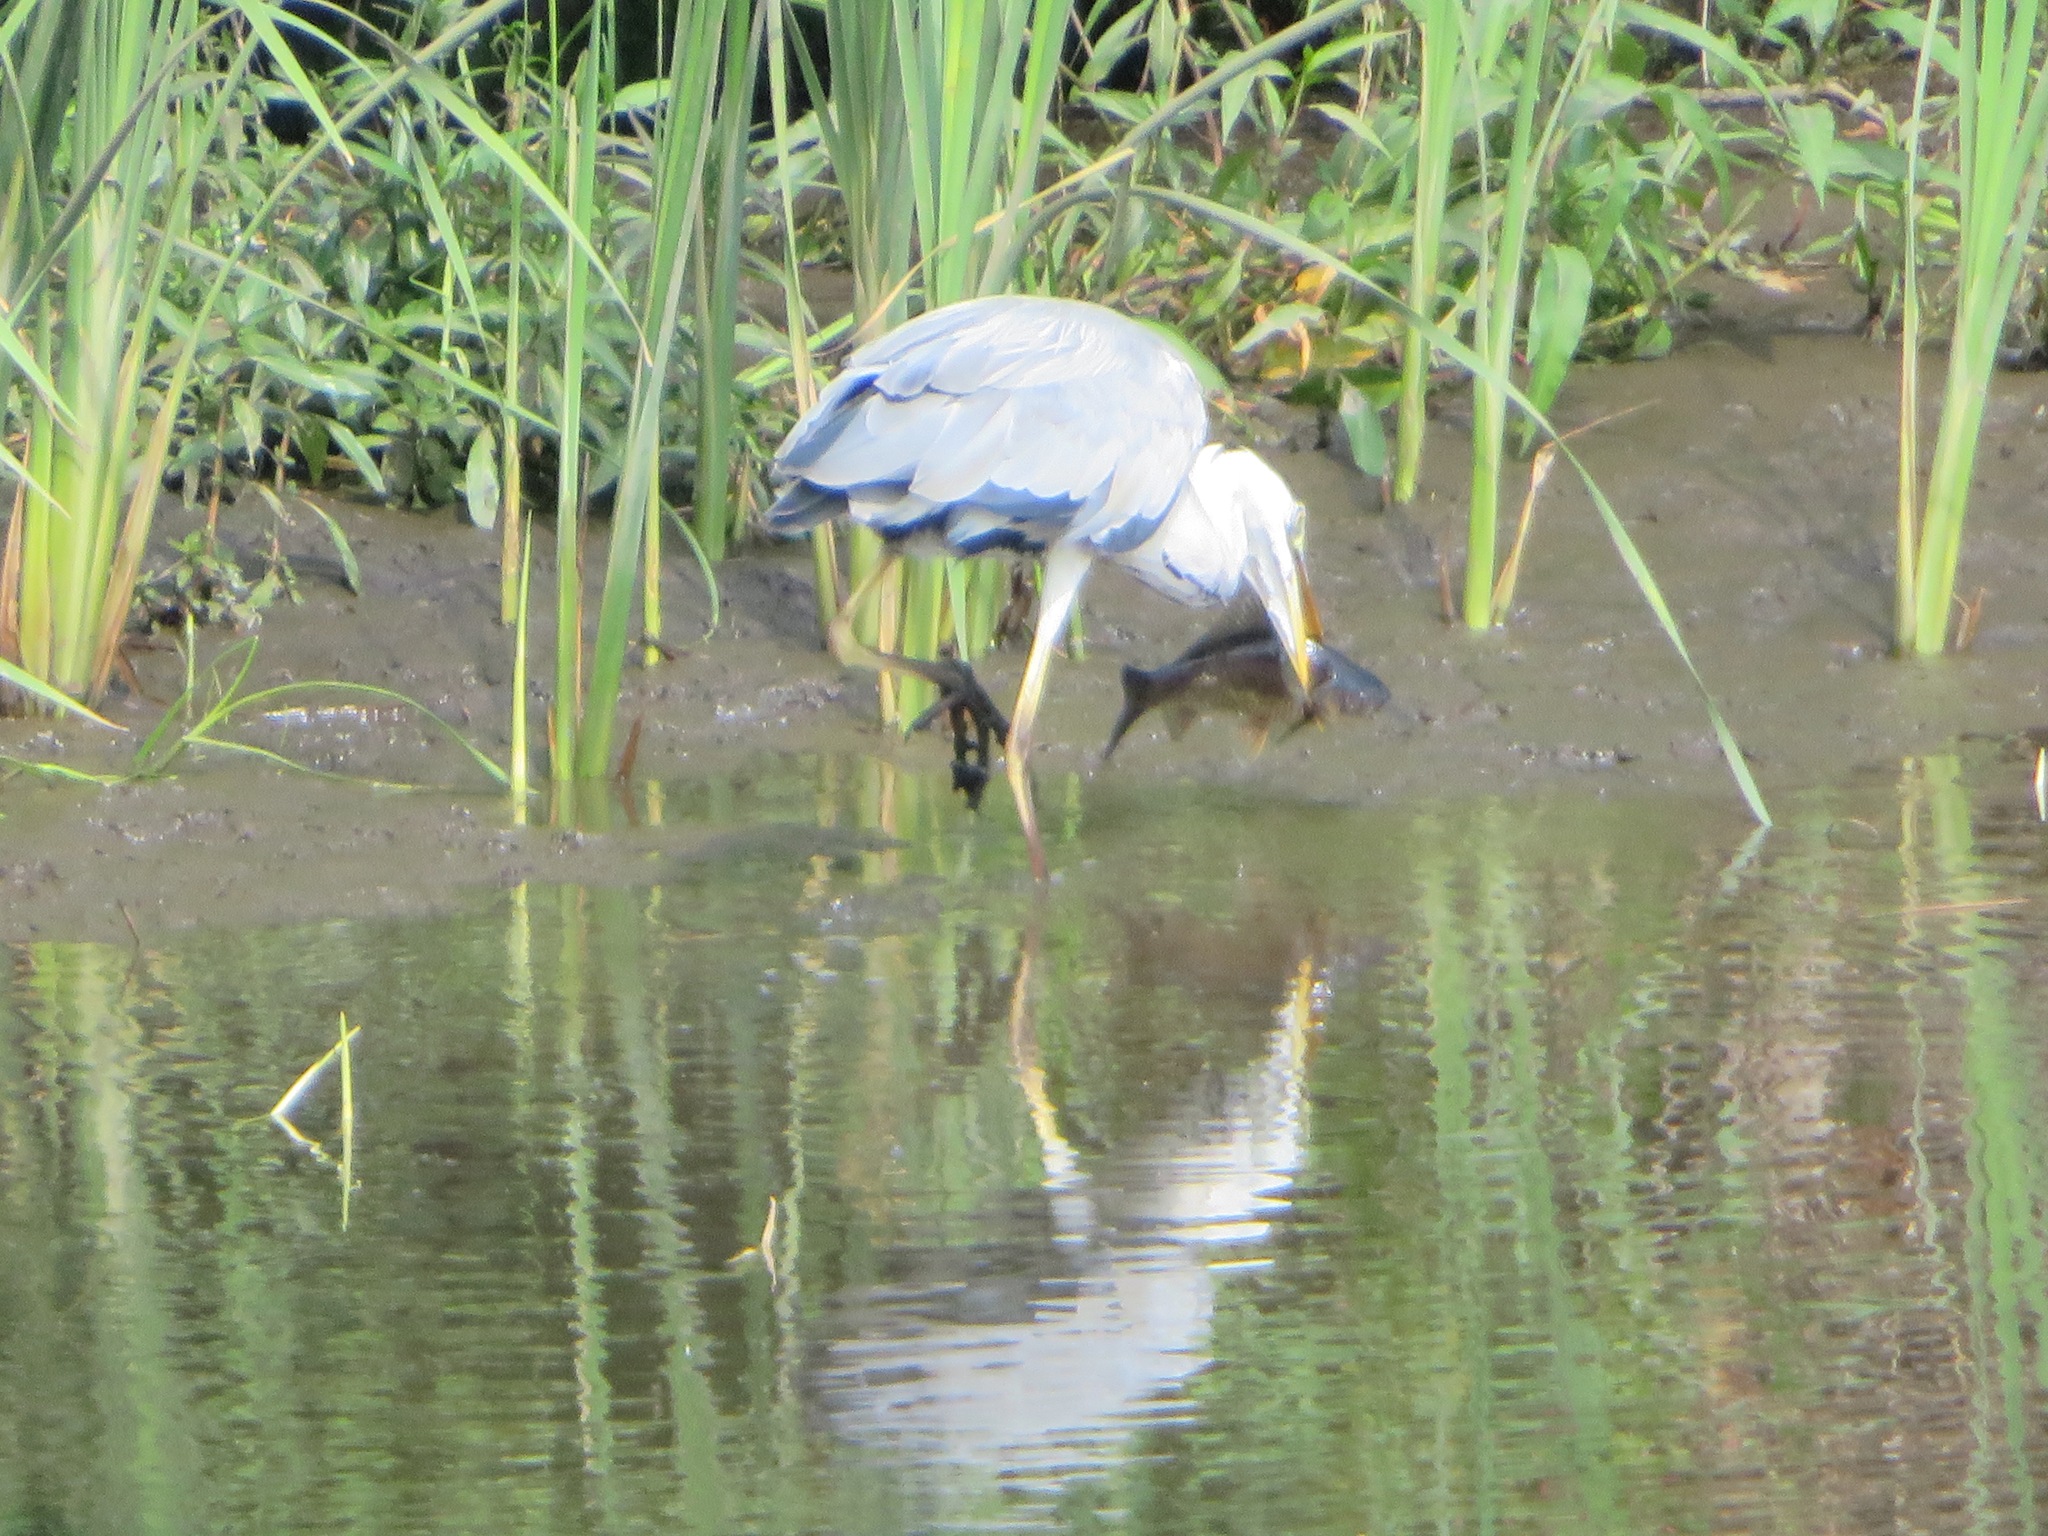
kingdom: Animalia
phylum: Chordata
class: Aves
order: Pelecaniformes
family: Ardeidae
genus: Ardea
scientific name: Ardea cinerea
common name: Grey heron
